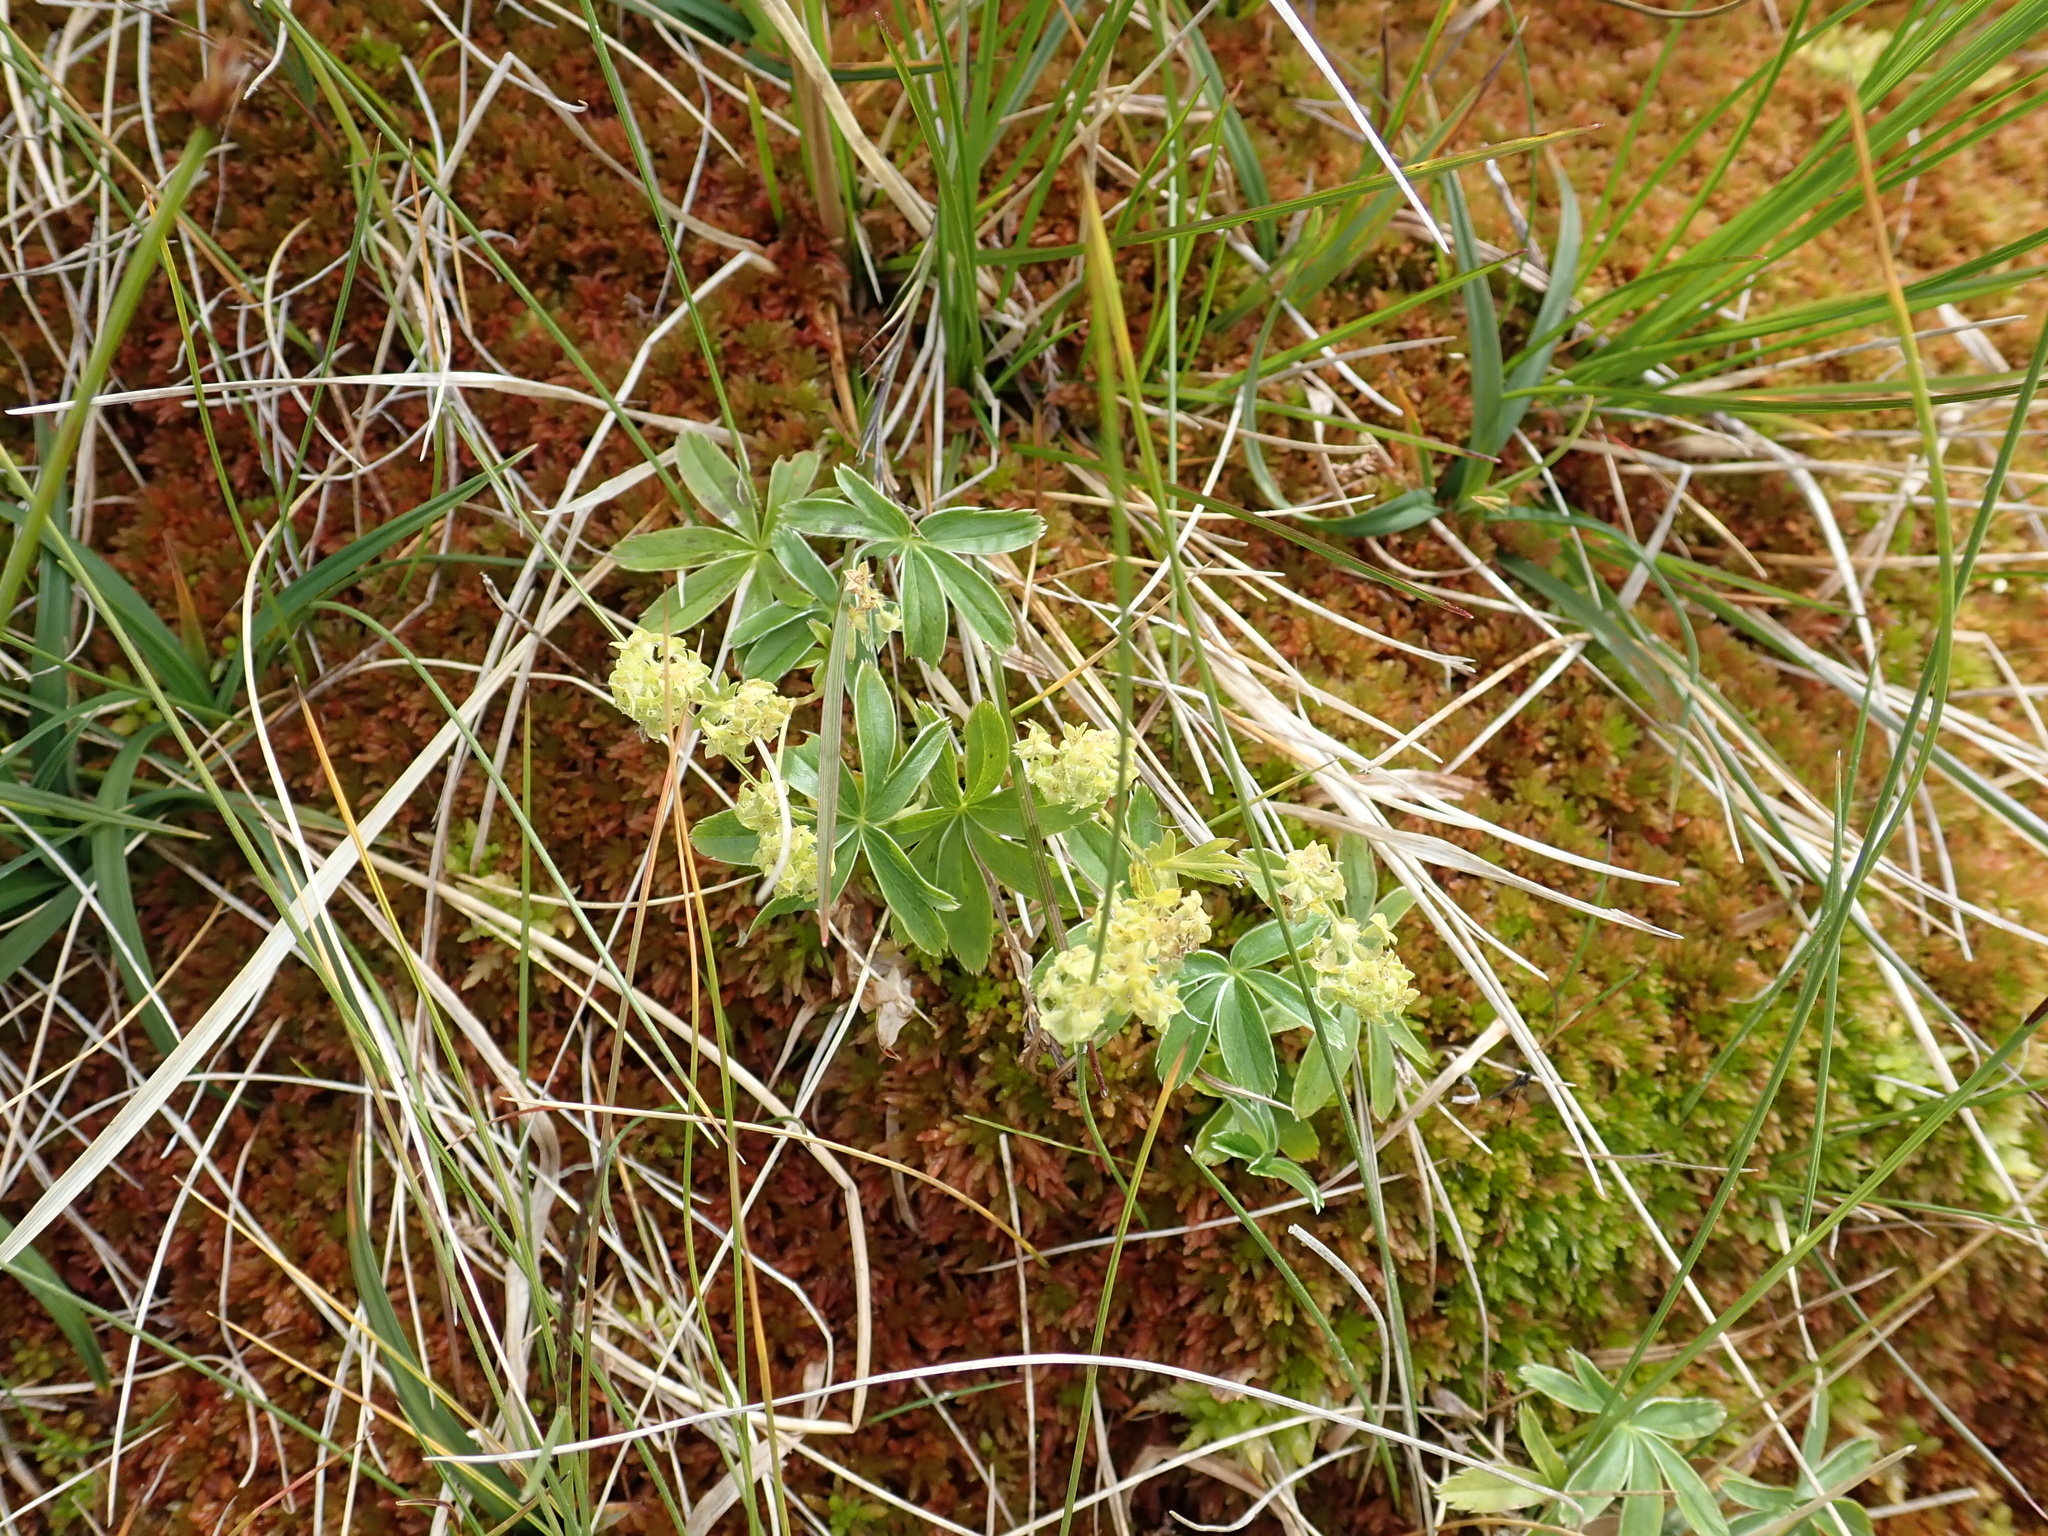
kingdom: Plantae
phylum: Tracheophyta
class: Magnoliopsida
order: Rosales
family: Rosaceae
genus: Alchemilla
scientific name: Alchemilla alpina
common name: Alpine lady's-mantle
